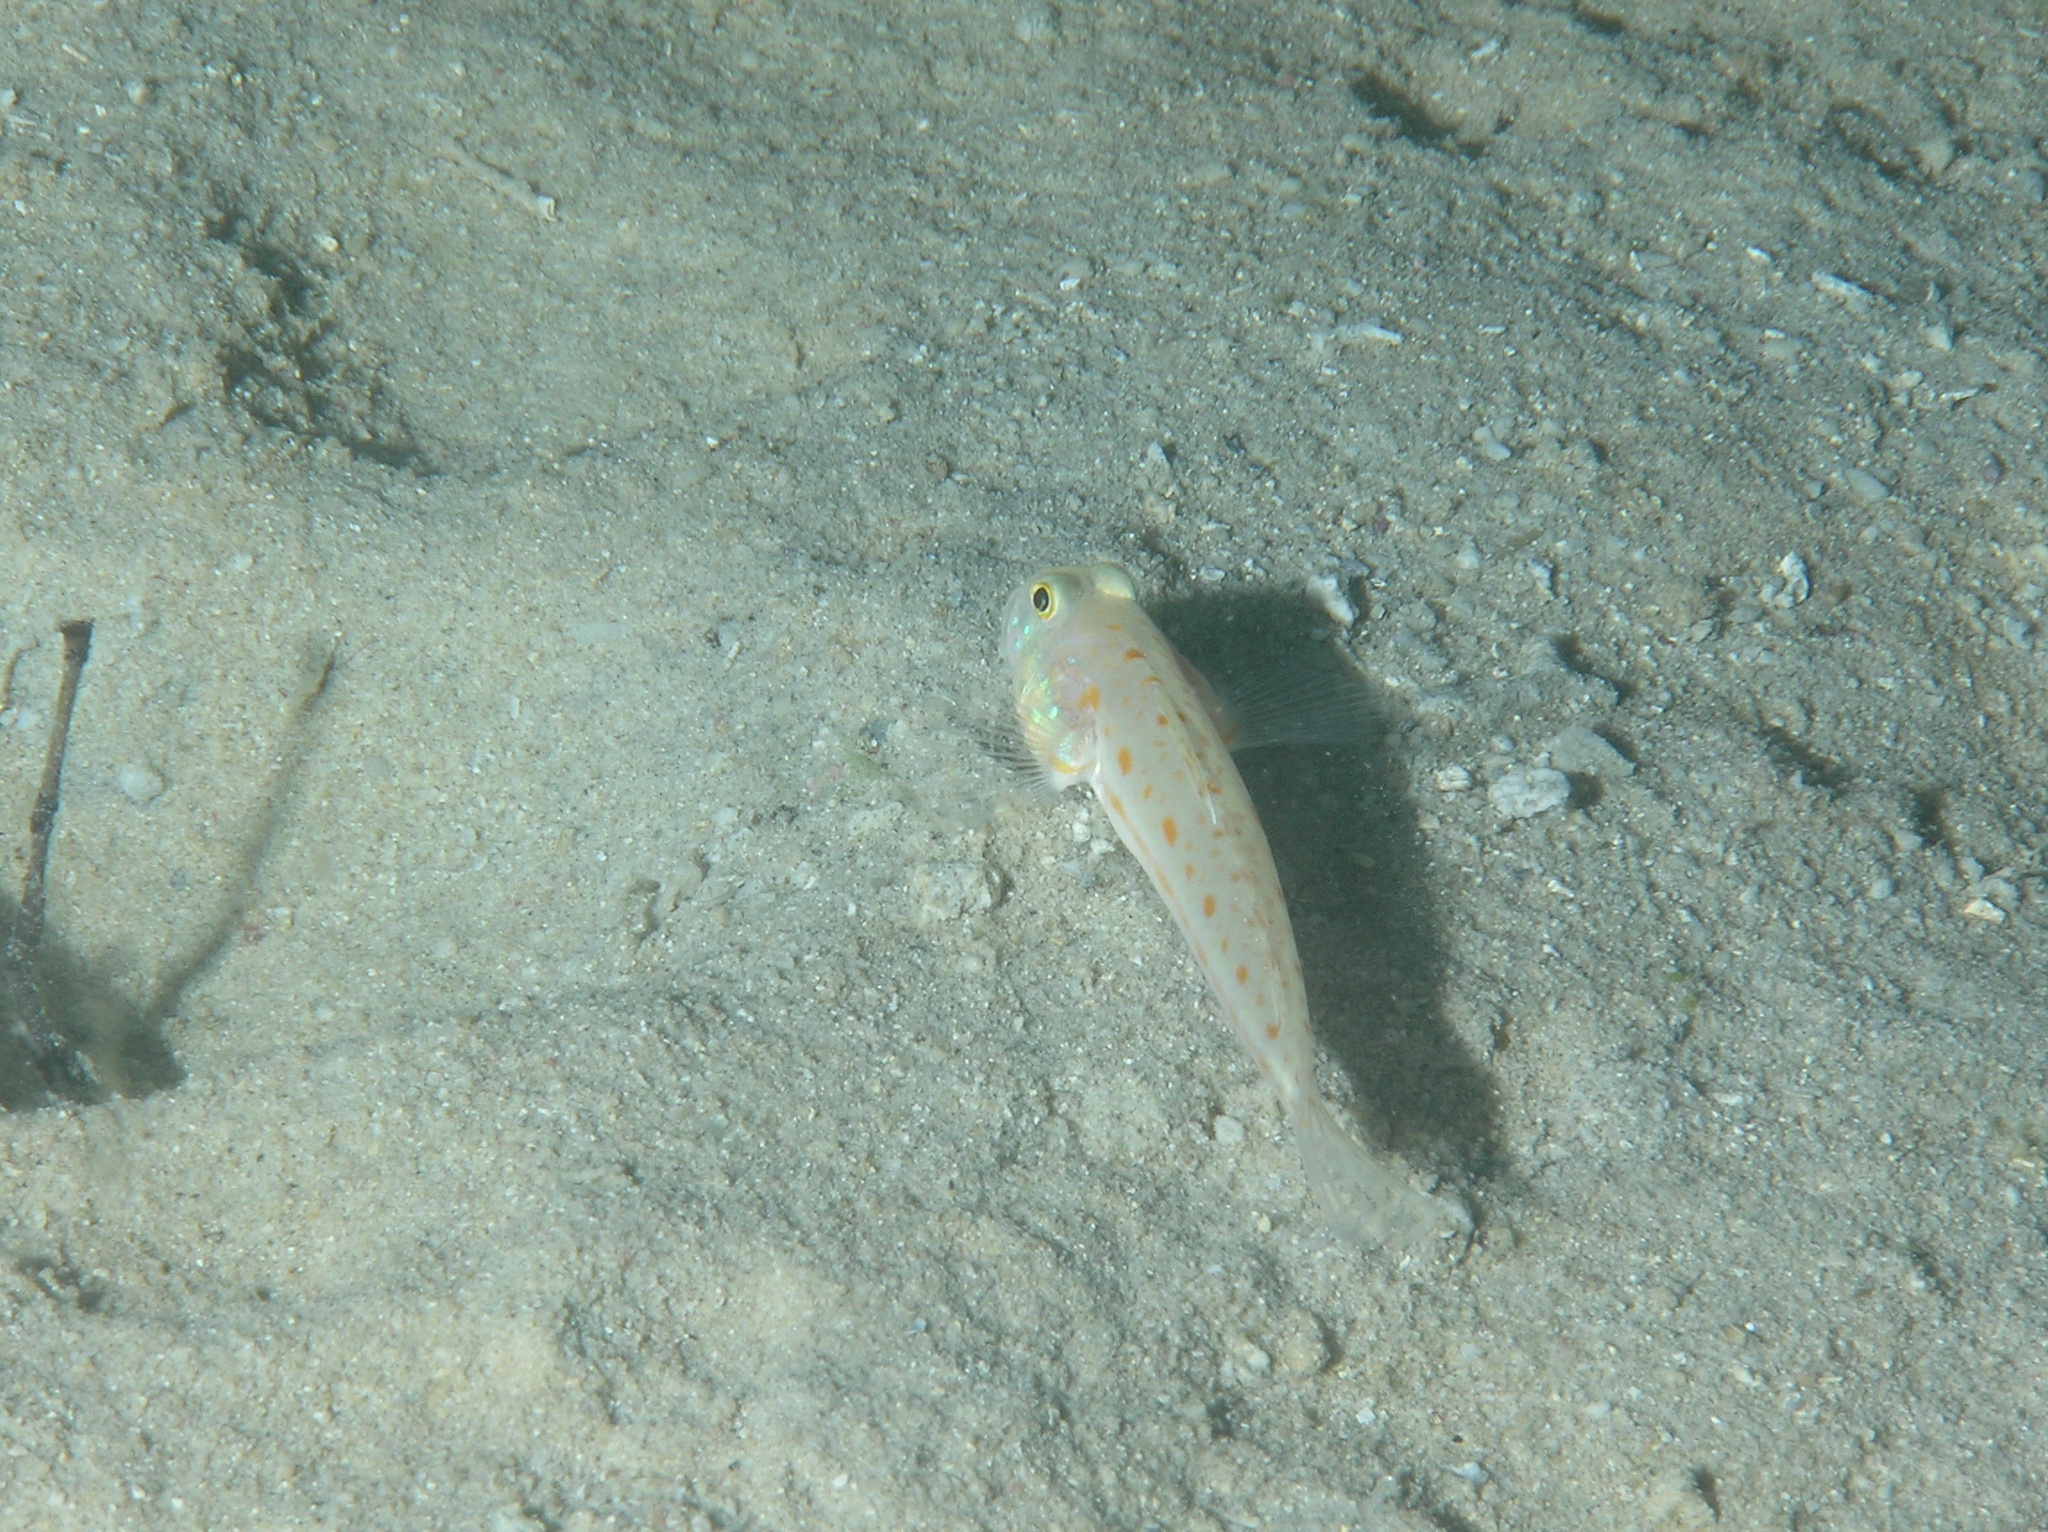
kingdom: Animalia
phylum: Chordata
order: Perciformes
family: Gobiidae
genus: Valenciennea
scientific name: Valenciennea puellaris
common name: Orange-dashed goby
